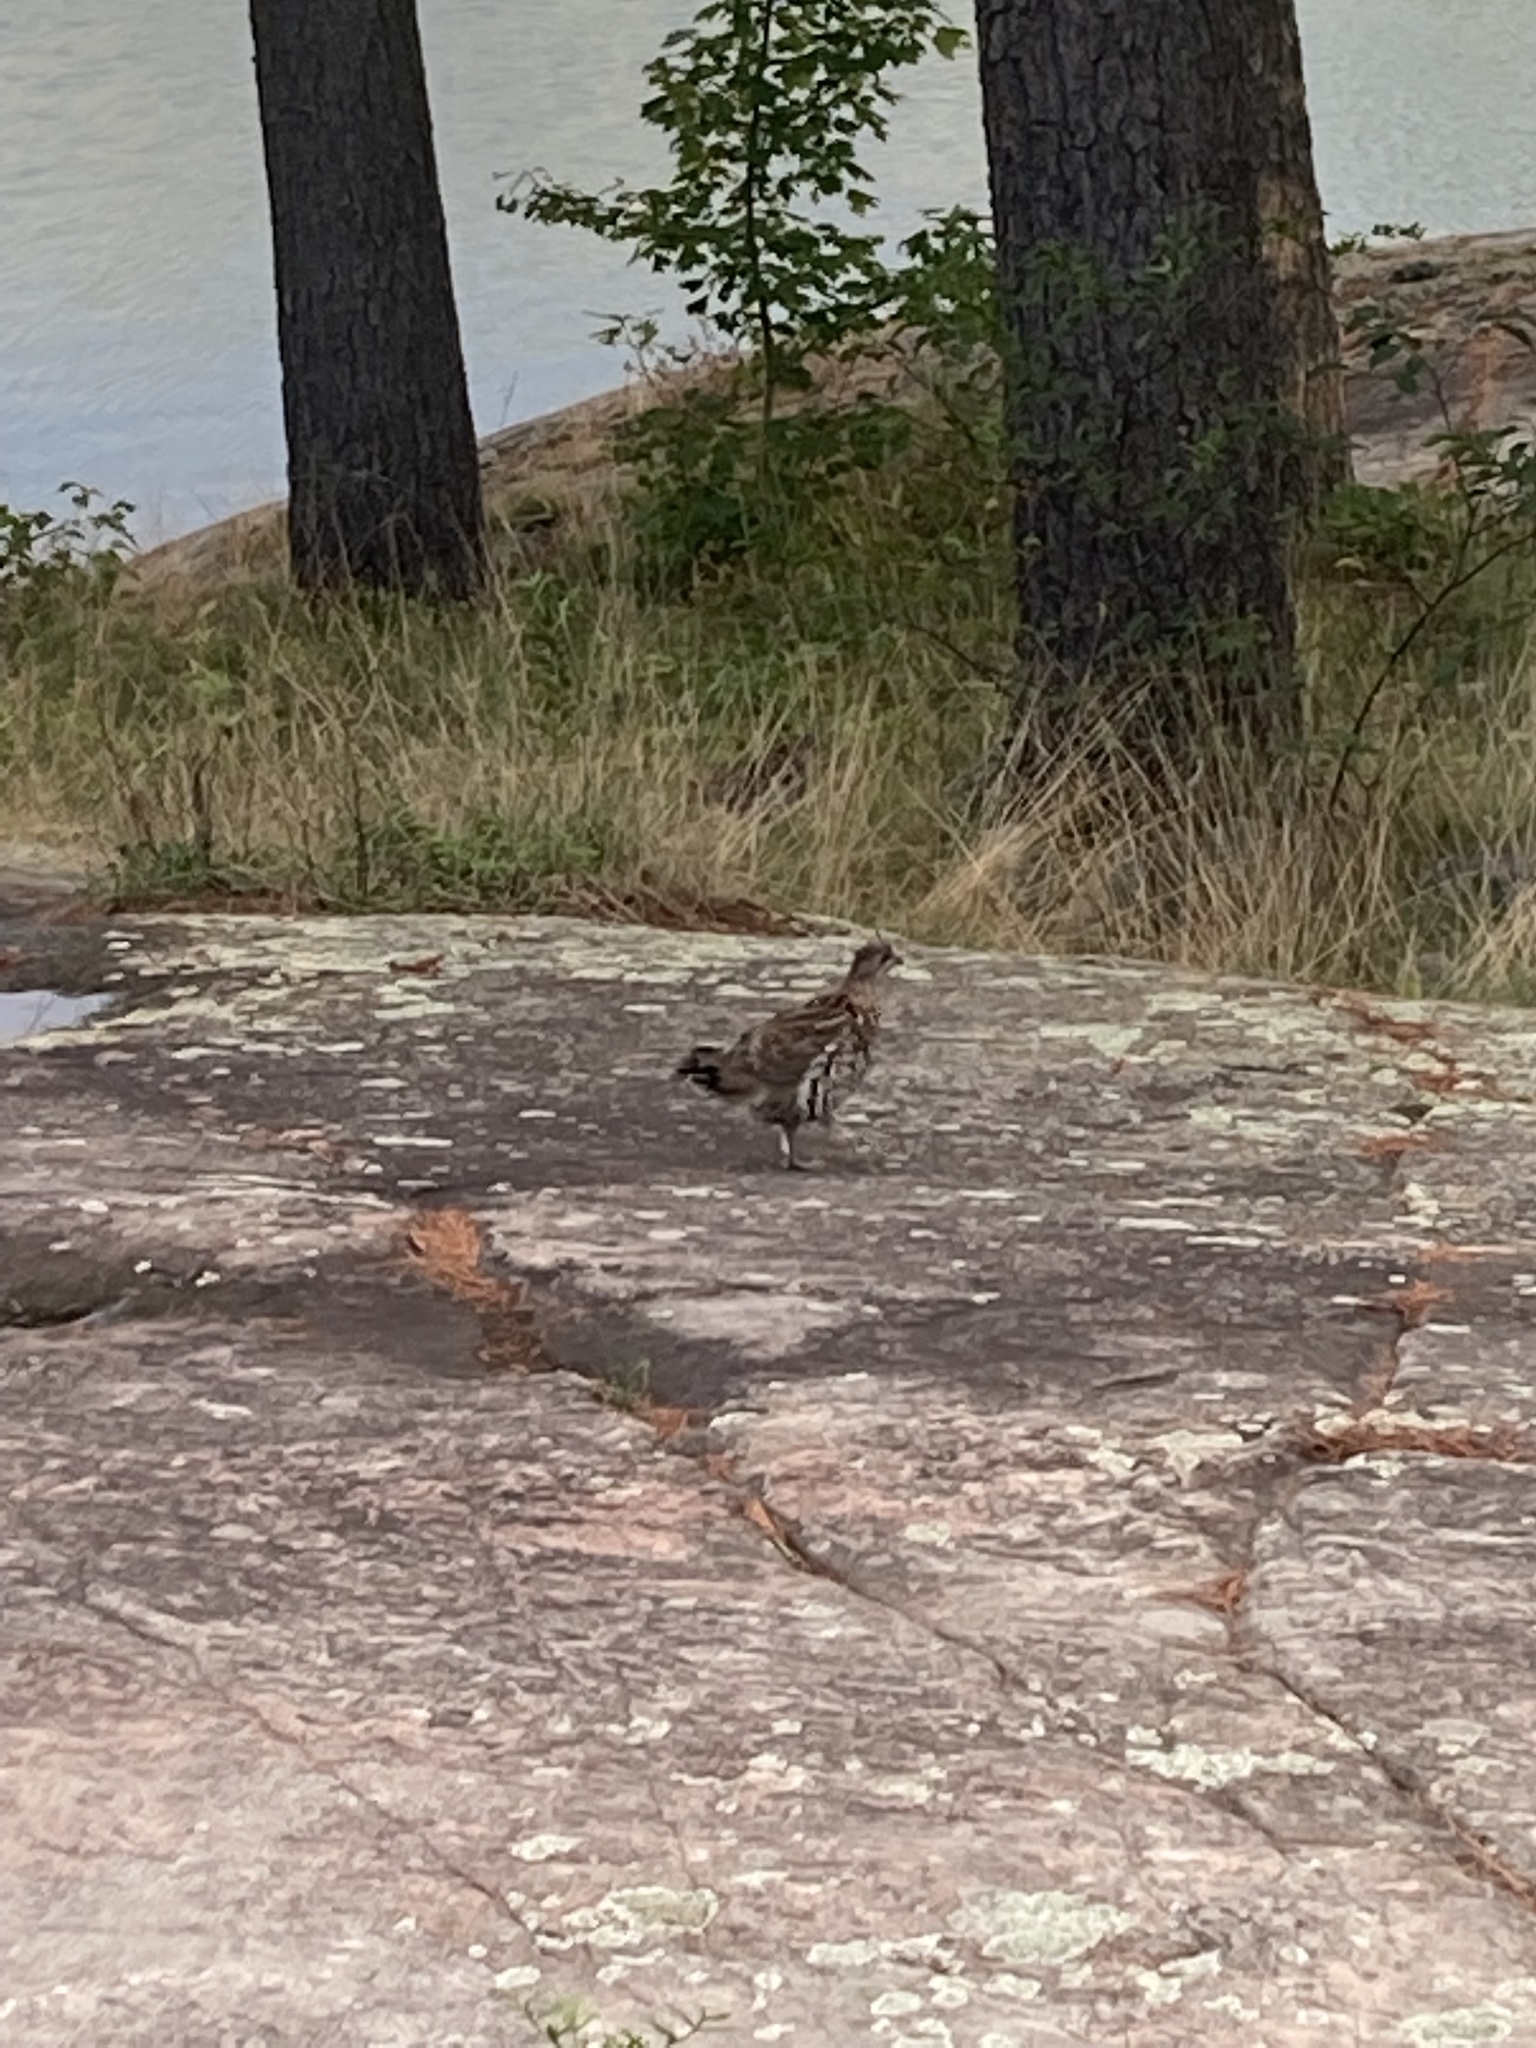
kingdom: Animalia
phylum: Chordata
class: Aves
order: Galliformes
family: Phasianidae
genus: Bonasa
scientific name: Bonasa umbellus
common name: Ruffed grouse
